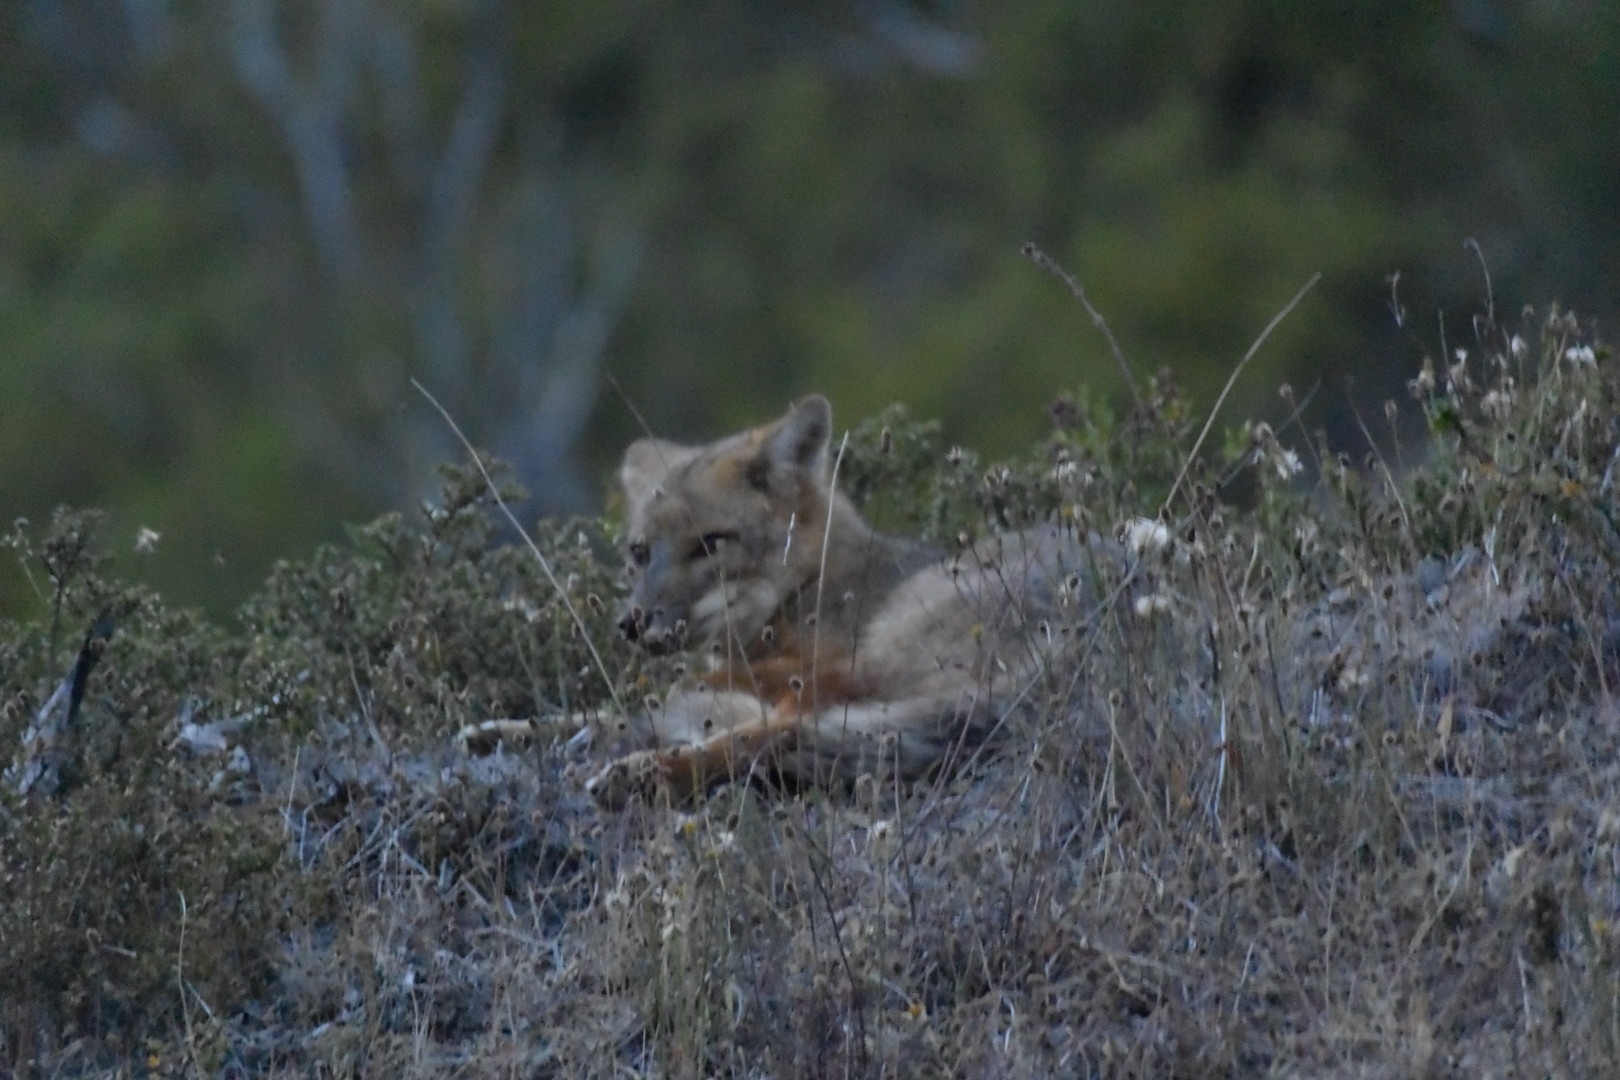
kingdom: Animalia
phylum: Chordata
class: Mammalia
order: Carnivora
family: Canidae
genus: Lycalopex
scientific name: Lycalopex gymnocercus
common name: Pampas fox
